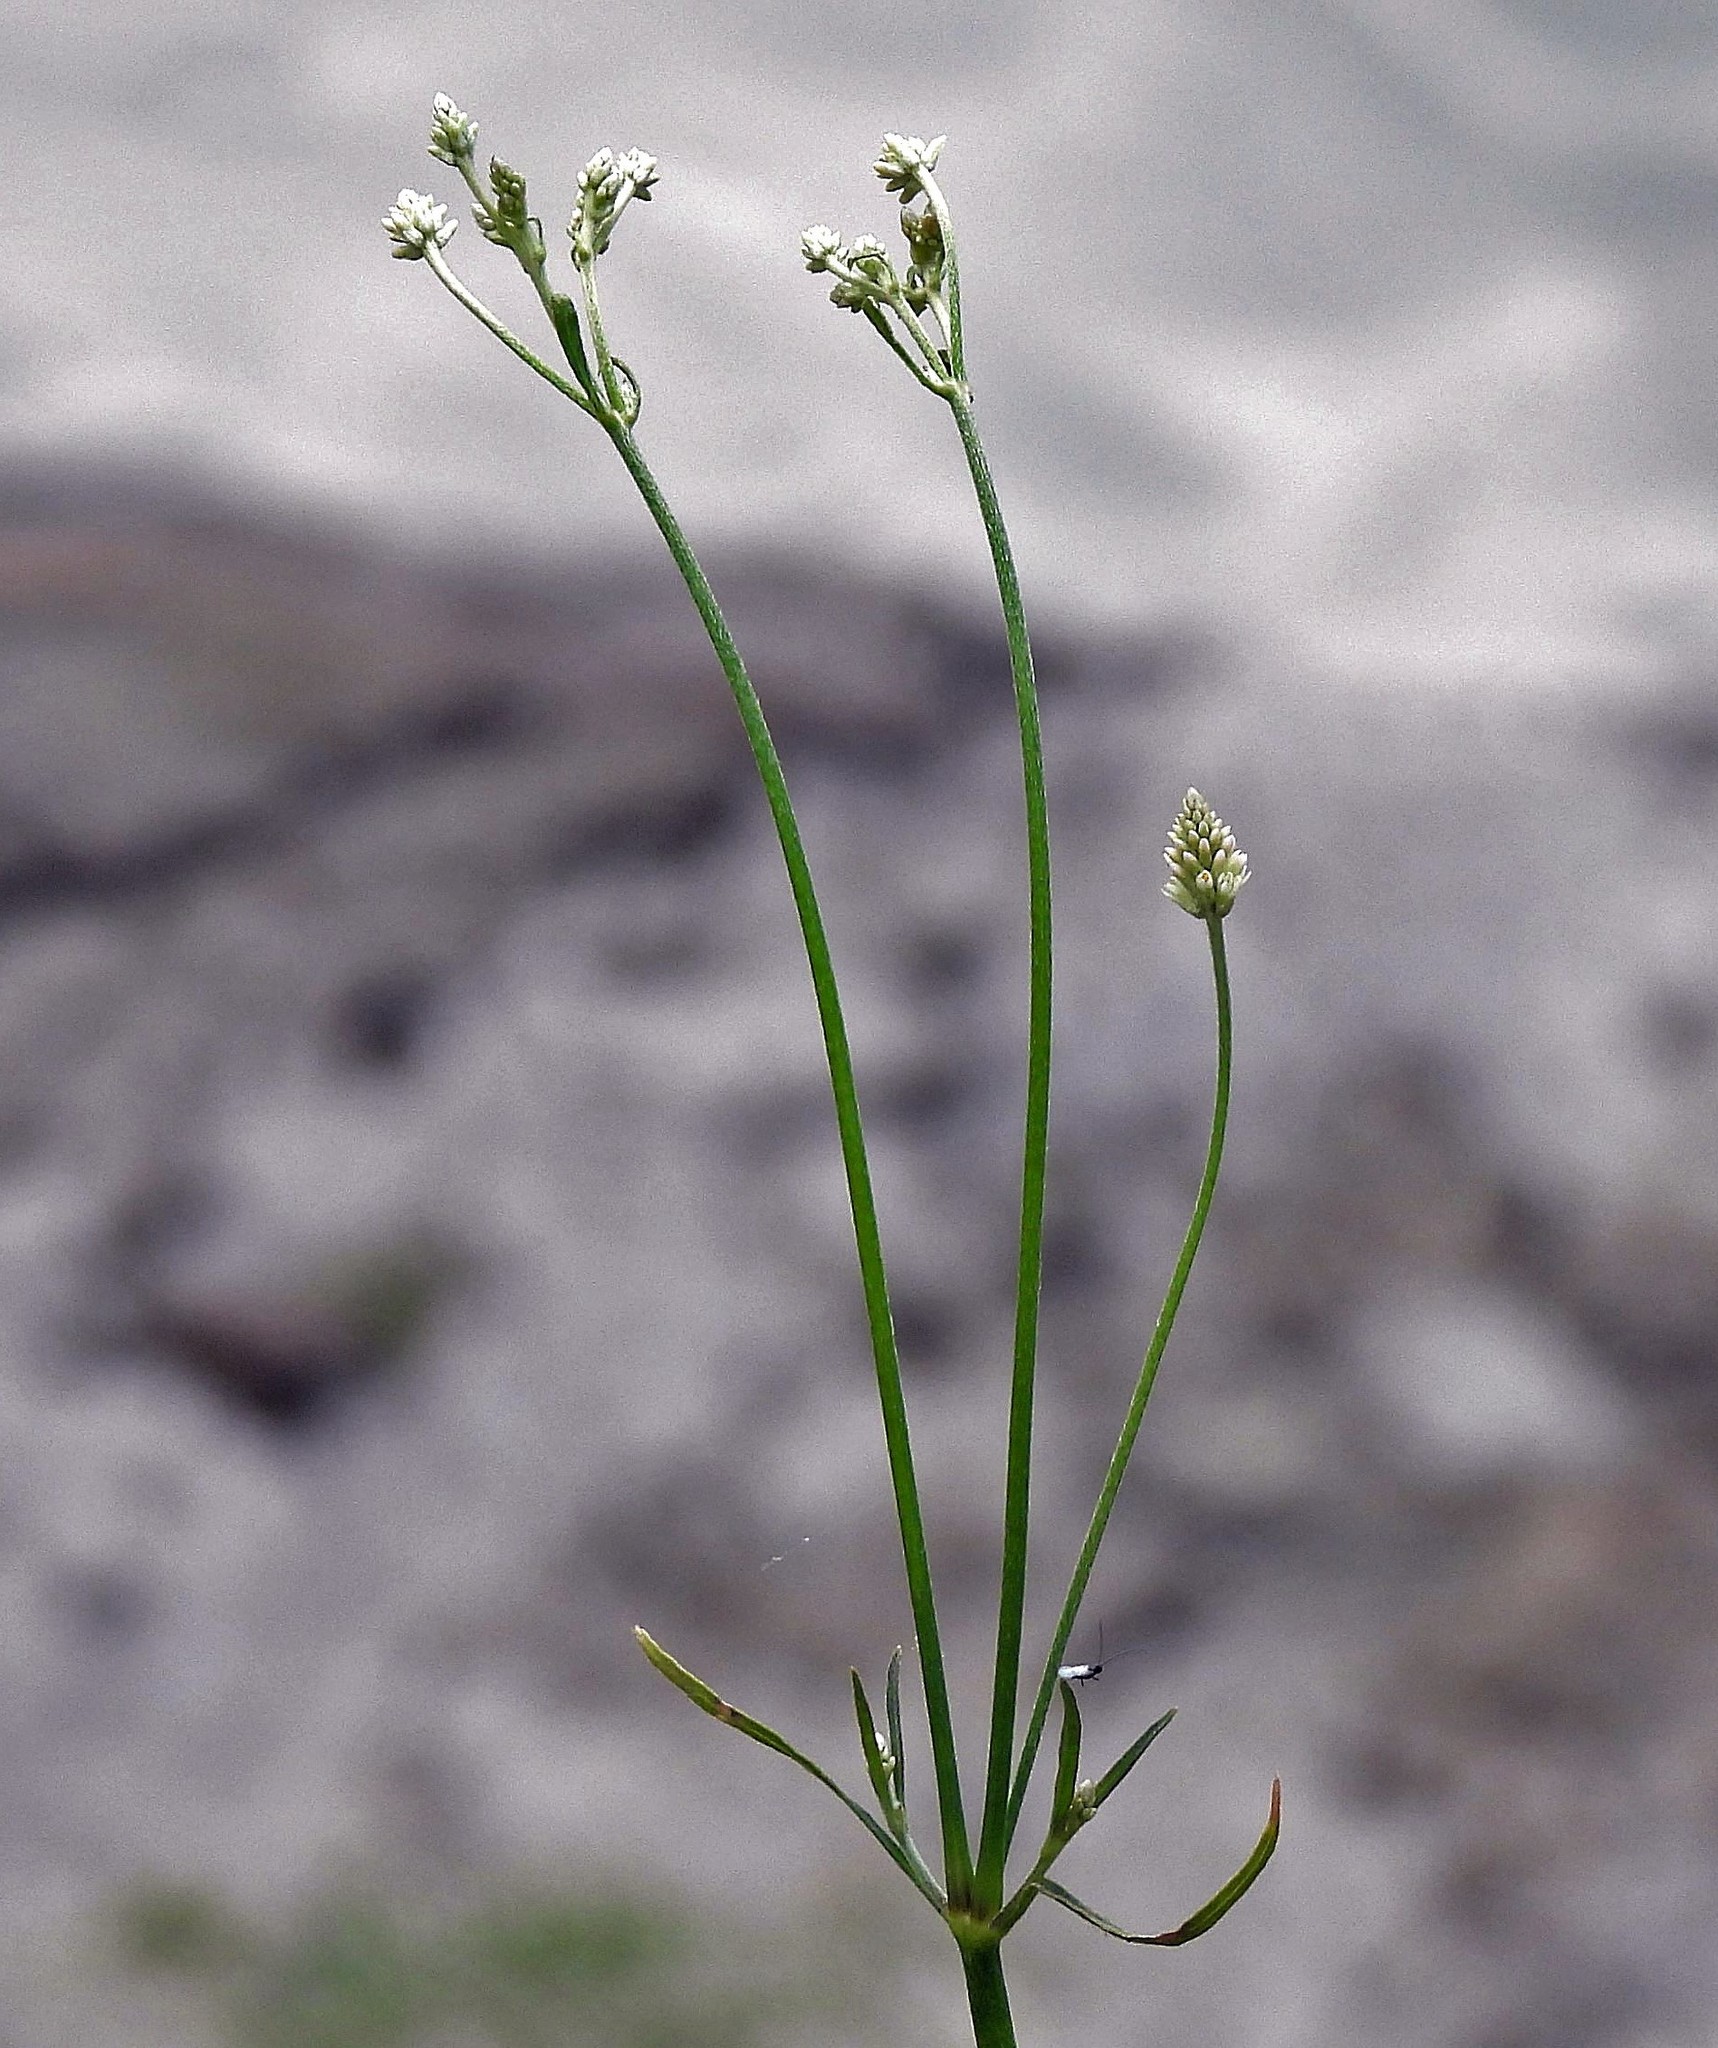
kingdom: Plantae
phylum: Tracheophyta
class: Magnoliopsida
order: Caryophyllales
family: Amaranthaceae
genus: Pfaffia
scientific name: Pfaffia glomerata
